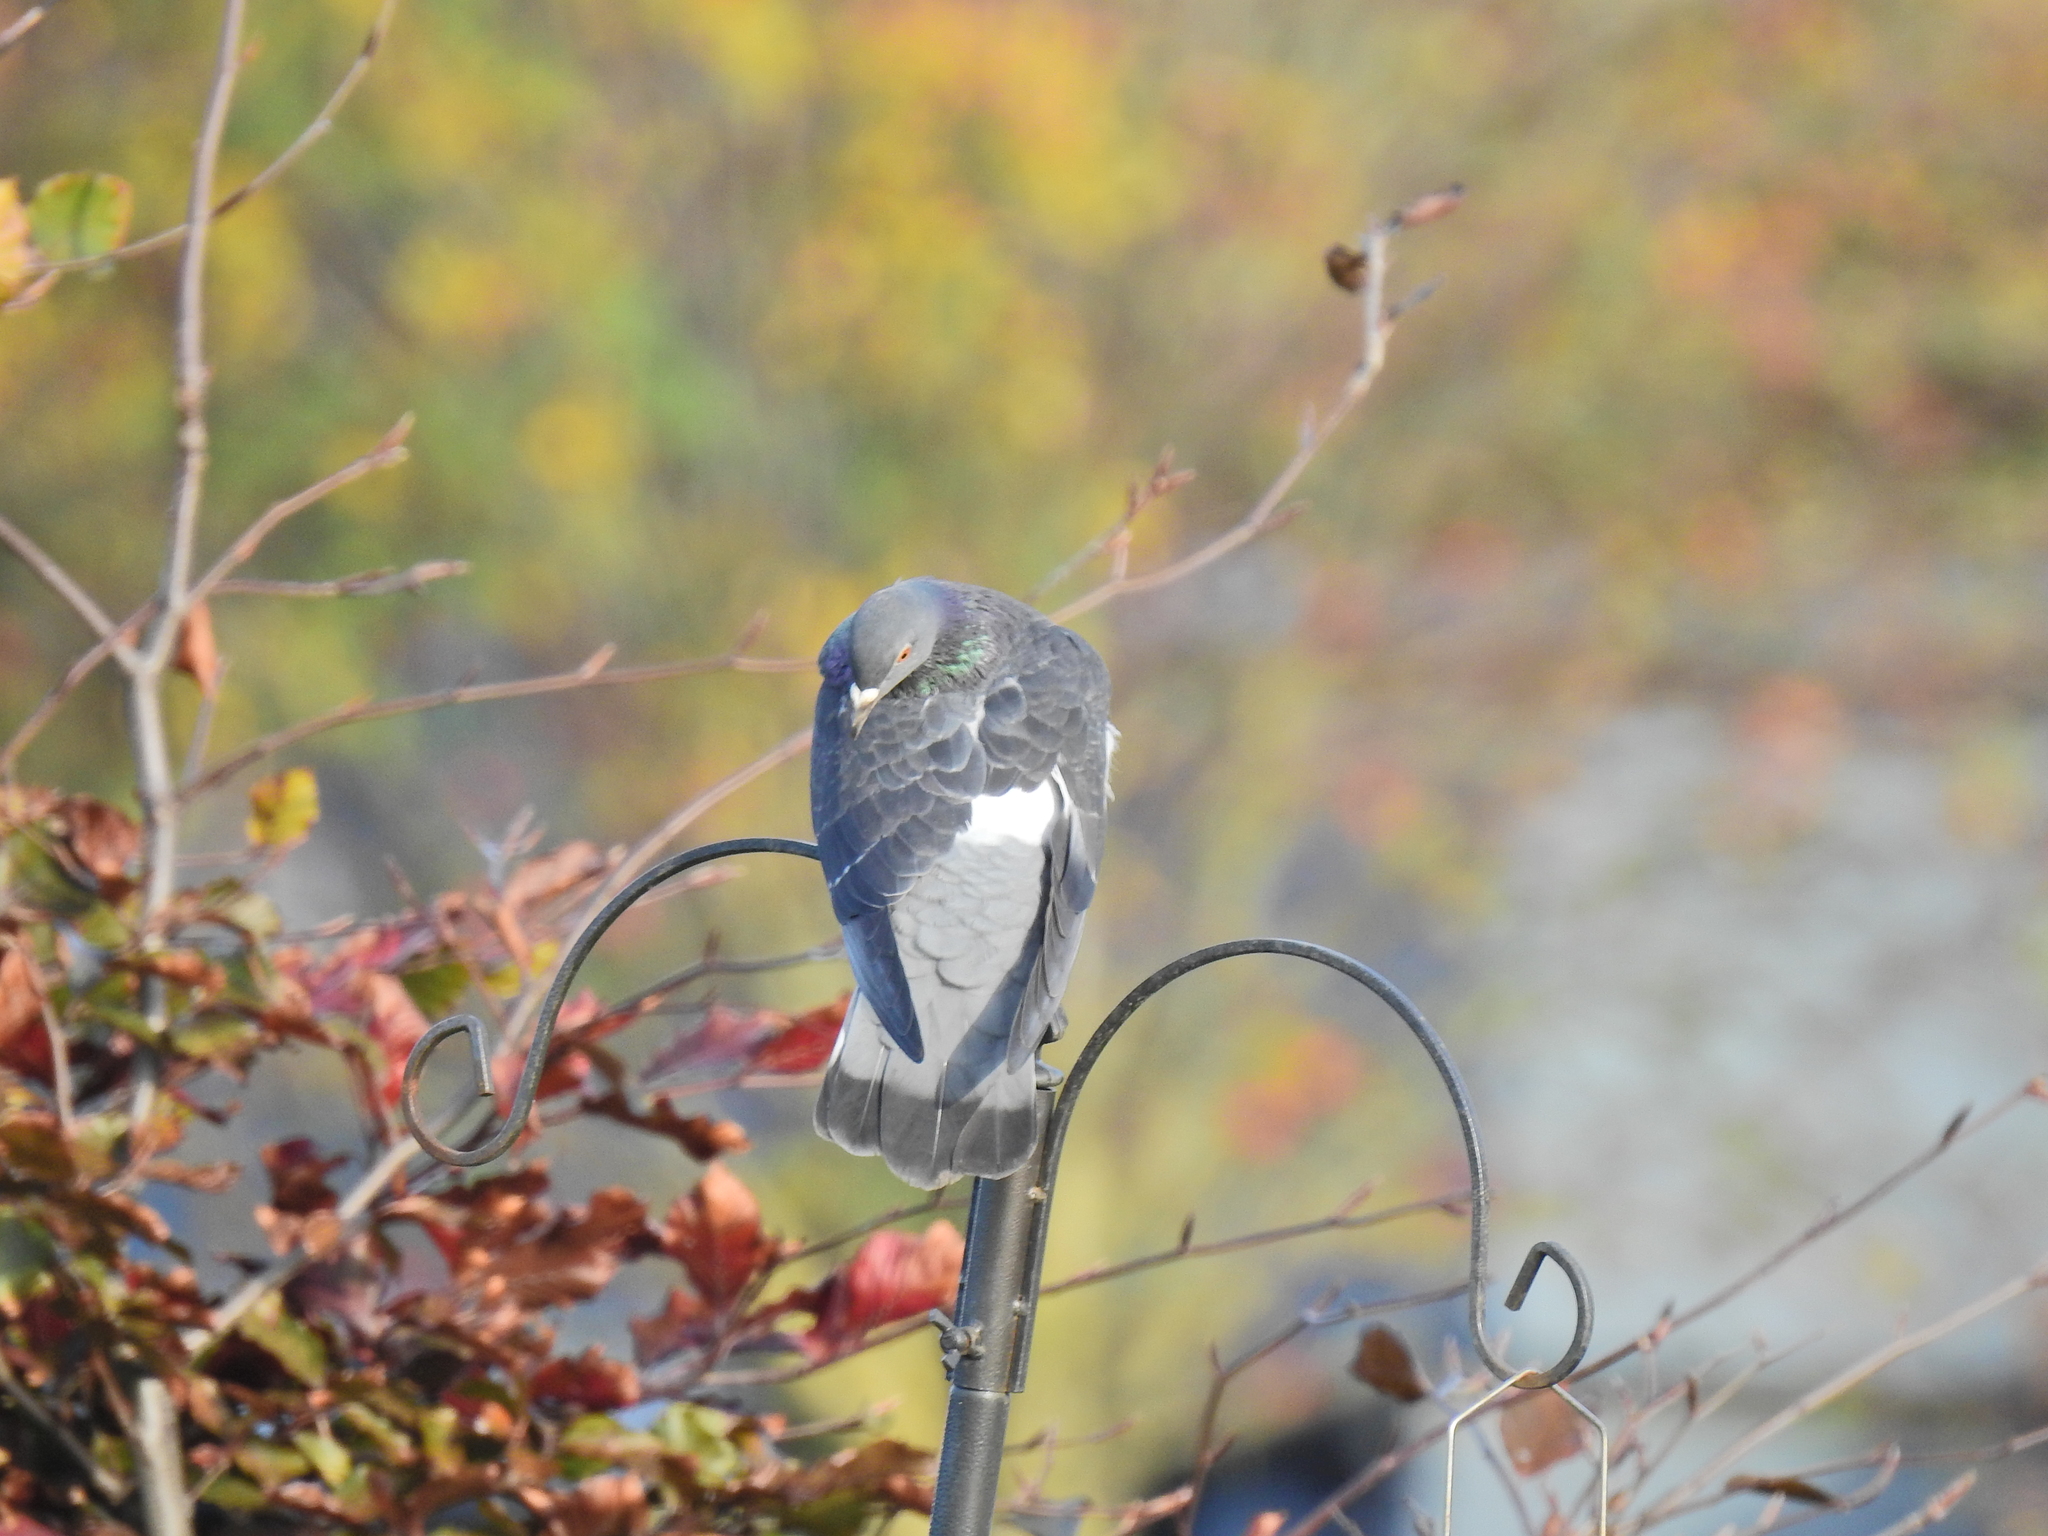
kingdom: Animalia
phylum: Chordata
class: Aves
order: Columbiformes
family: Columbidae
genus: Columba
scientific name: Columba livia
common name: Rock pigeon
